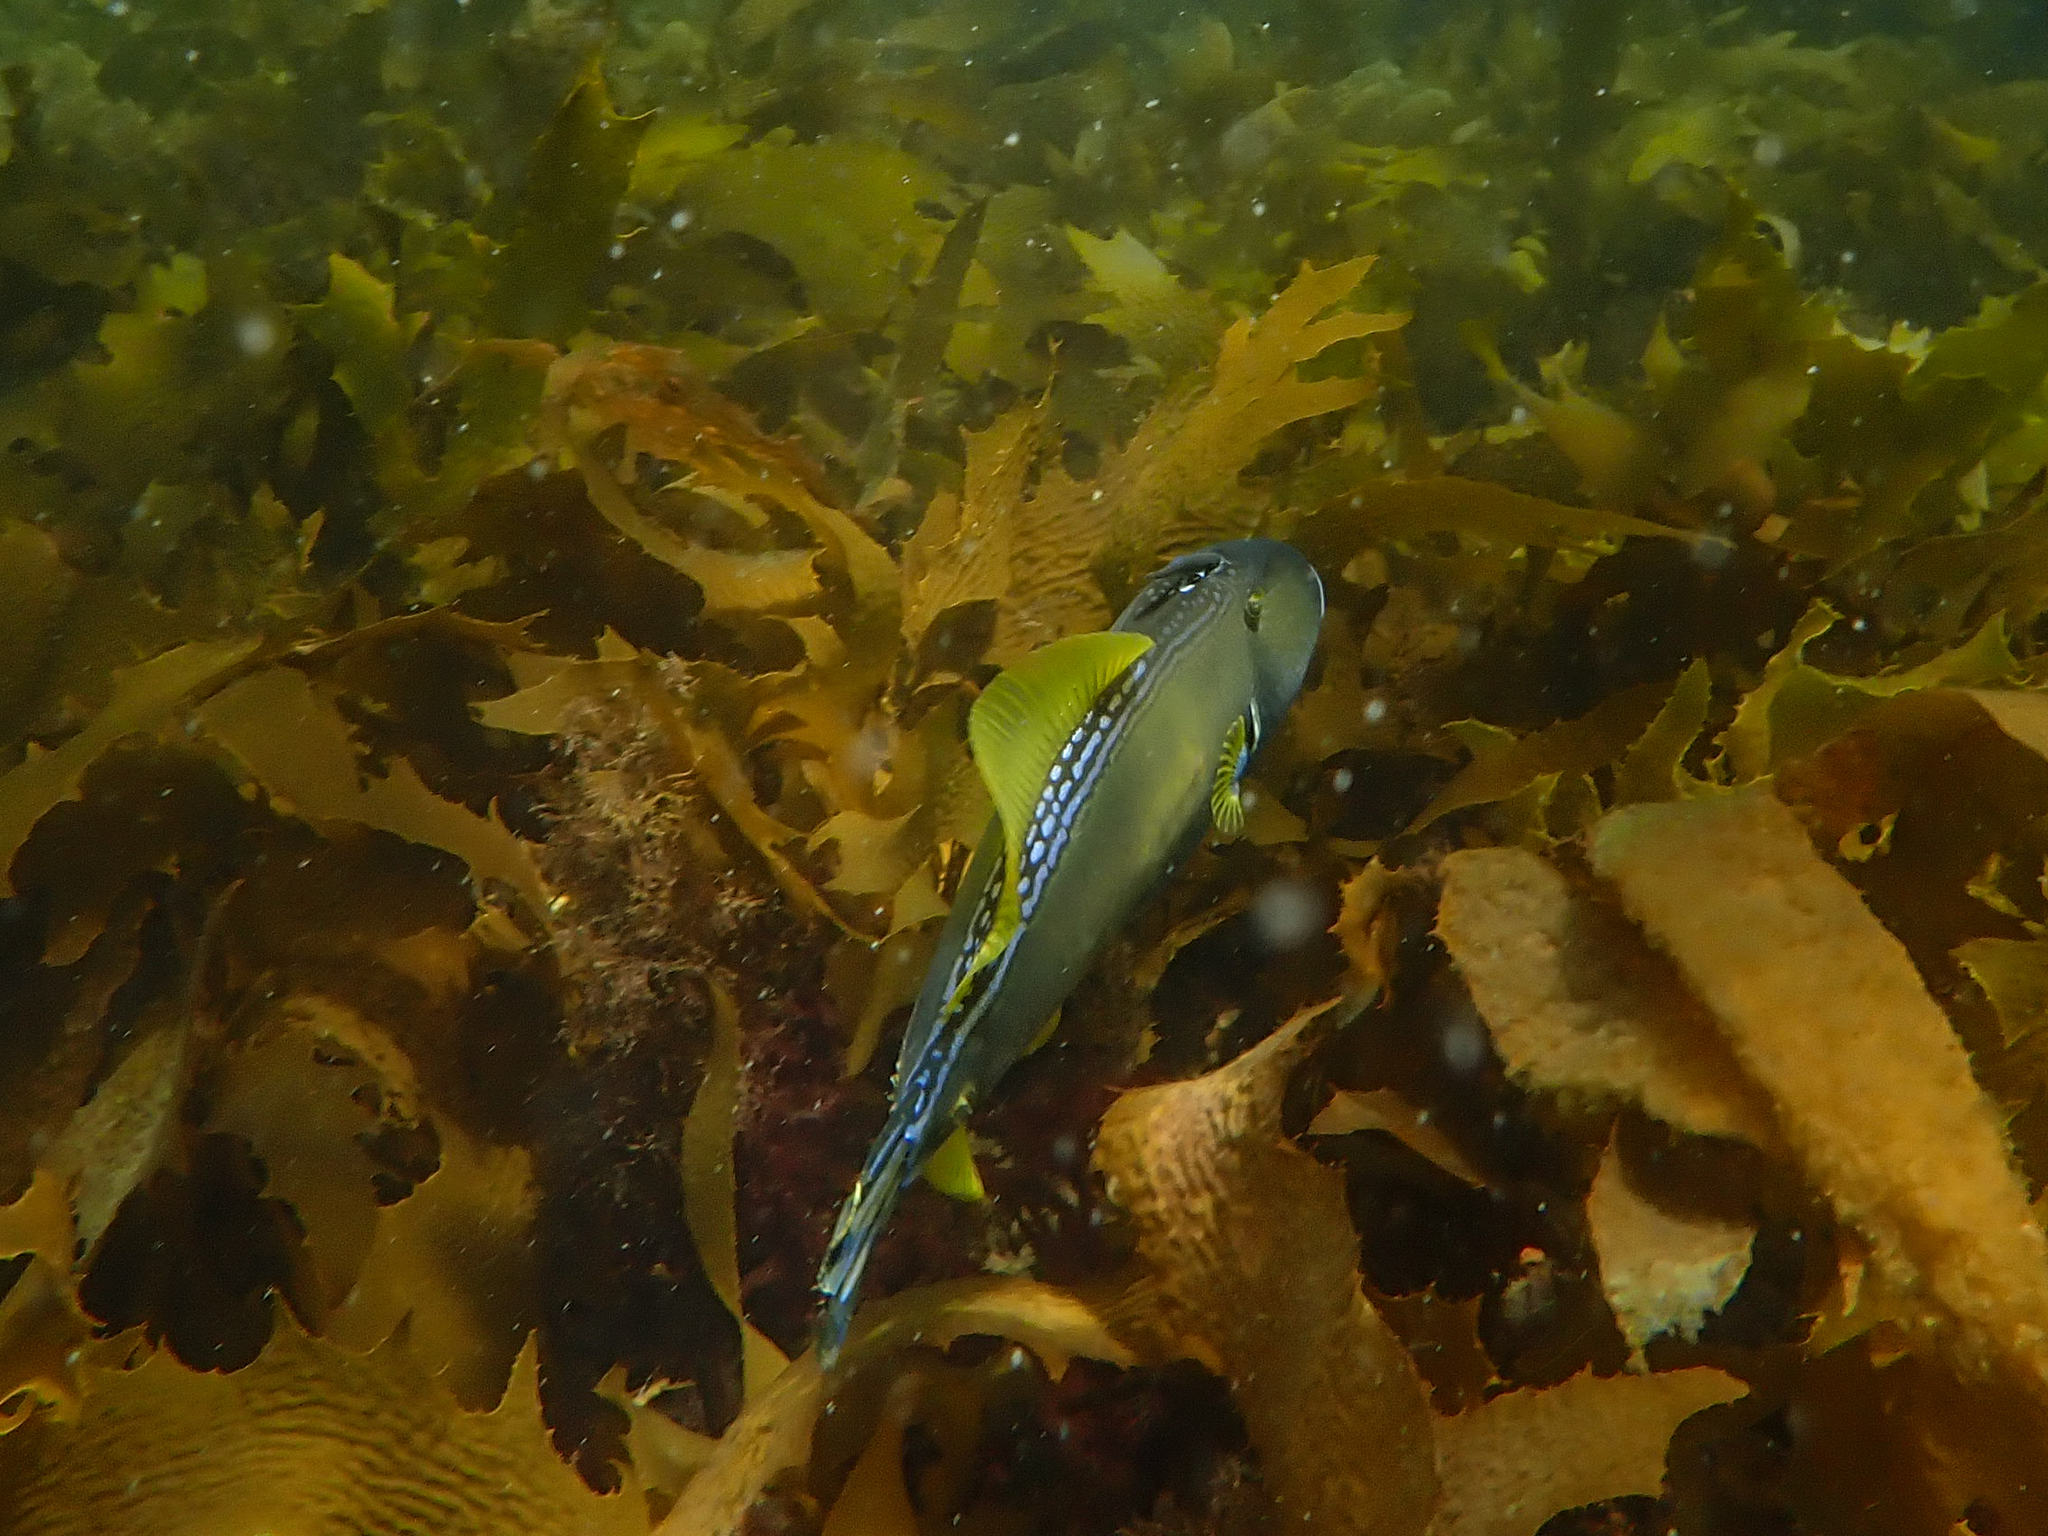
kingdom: Animalia
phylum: Chordata
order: Tetraodontiformes
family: Monacanthidae
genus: Meuschenia
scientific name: Meuschenia freycineti
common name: Freycinet's leatherjacket
